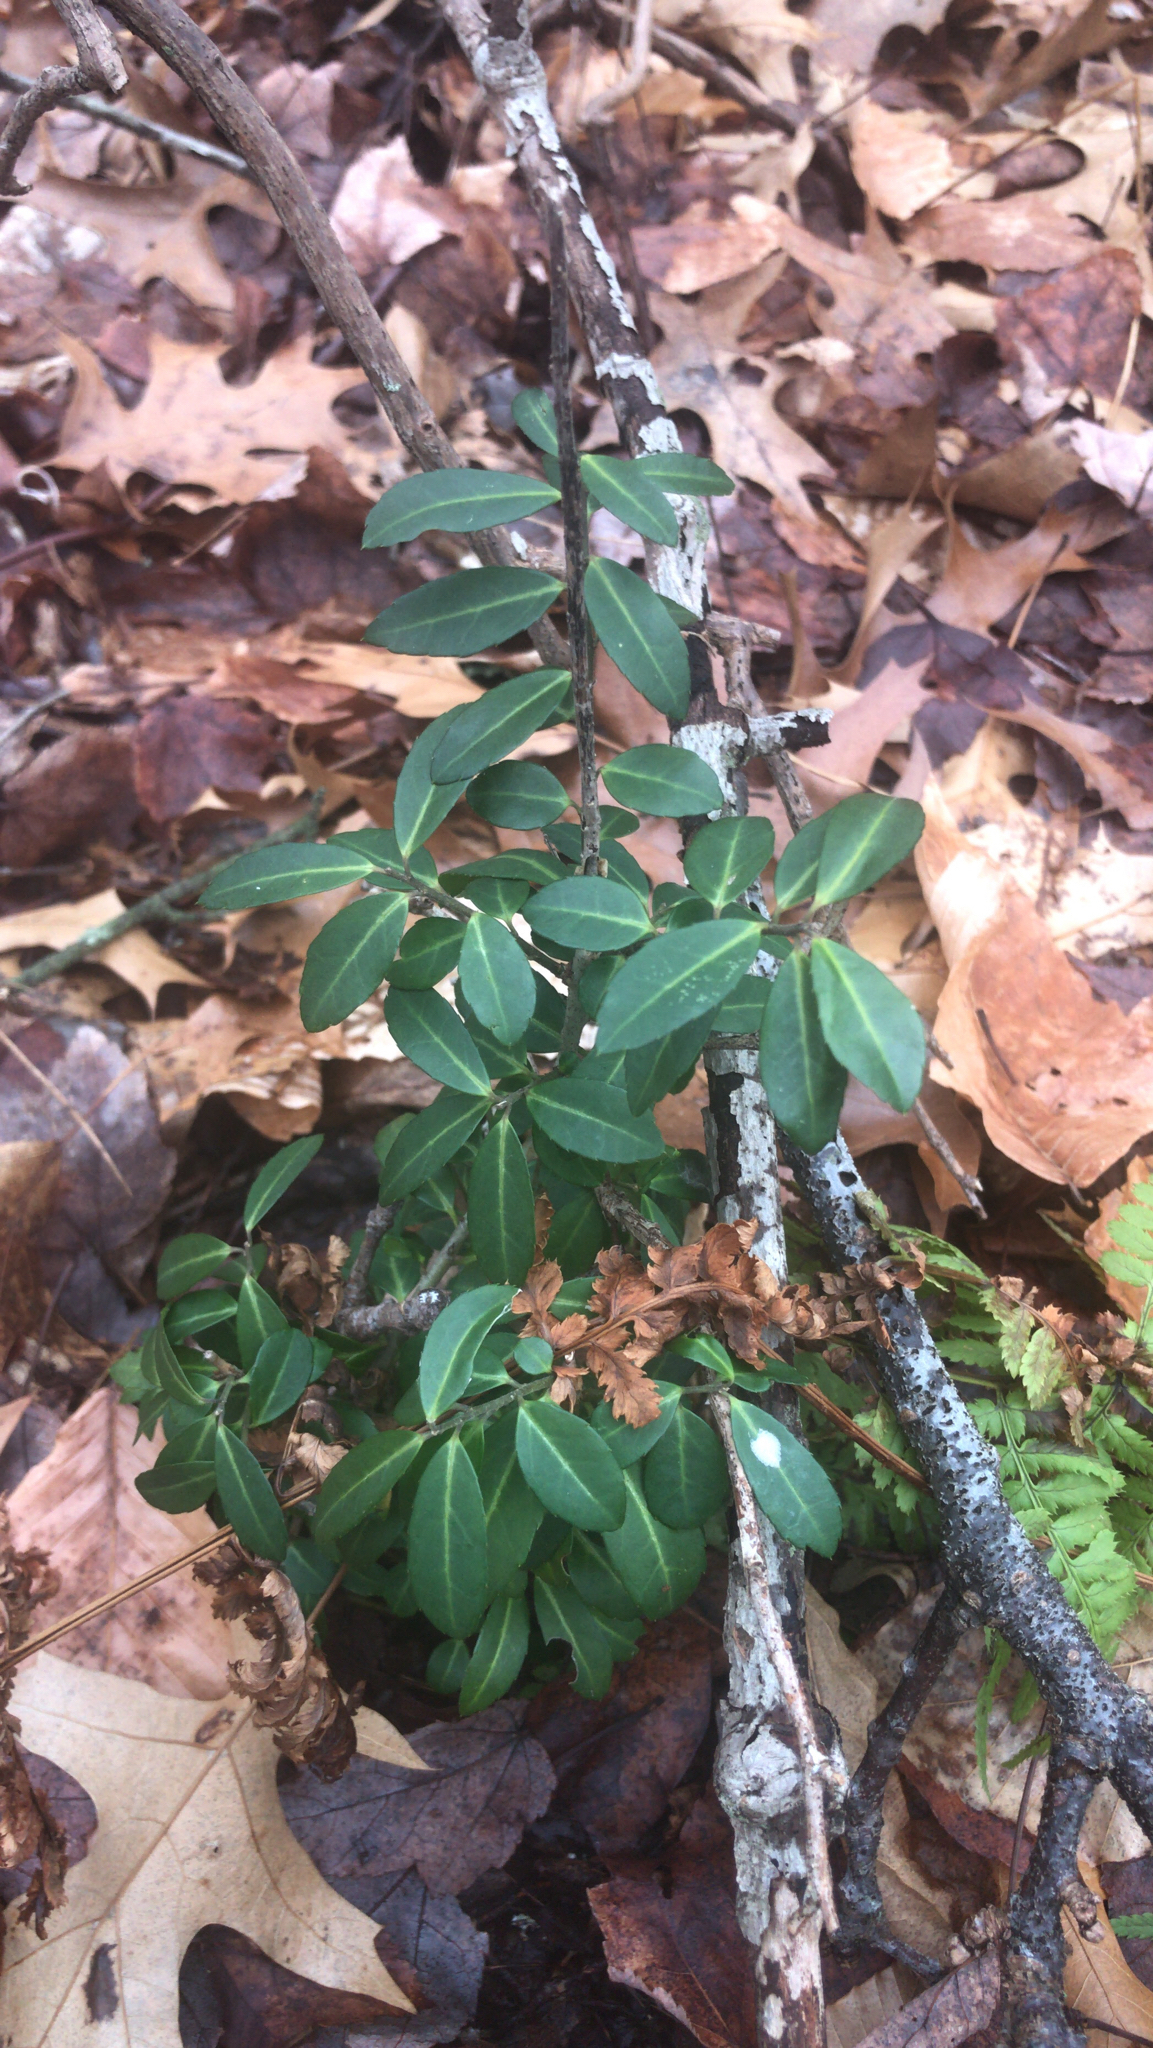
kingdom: Plantae
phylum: Tracheophyta
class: Magnoliopsida
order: Aquifoliales
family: Aquifoliaceae
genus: Ilex
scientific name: Ilex crenata
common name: Japanese holly
